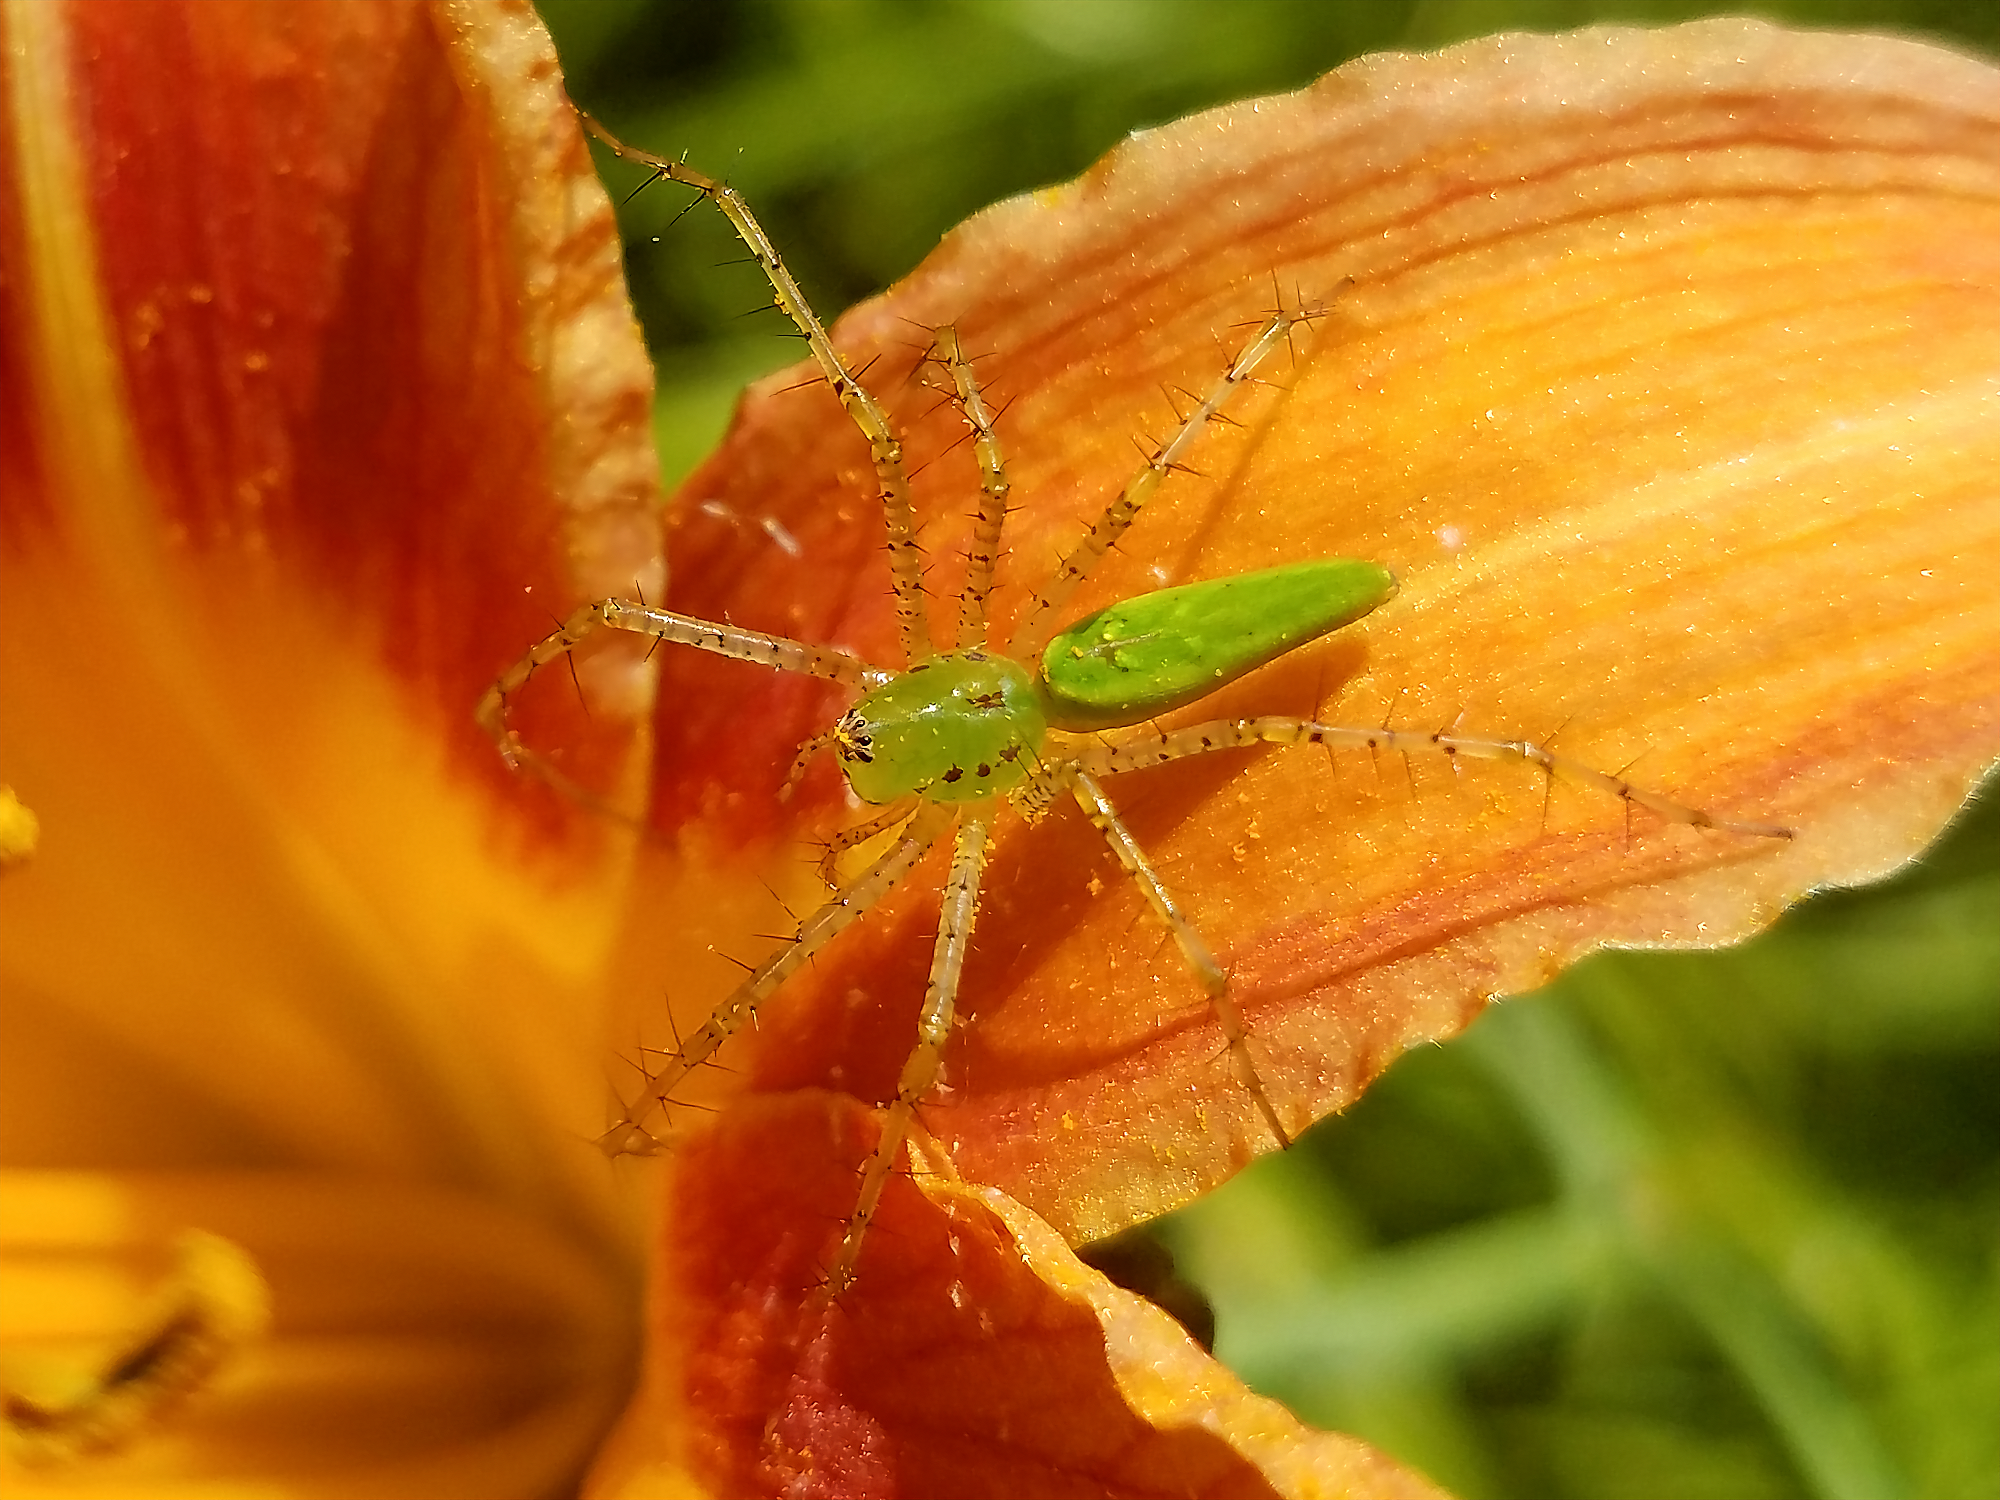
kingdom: Animalia
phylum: Arthropoda
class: Arachnida
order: Araneae
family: Oxyopidae
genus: Peucetia
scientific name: Peucetia viridans
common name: Lynx spiders
